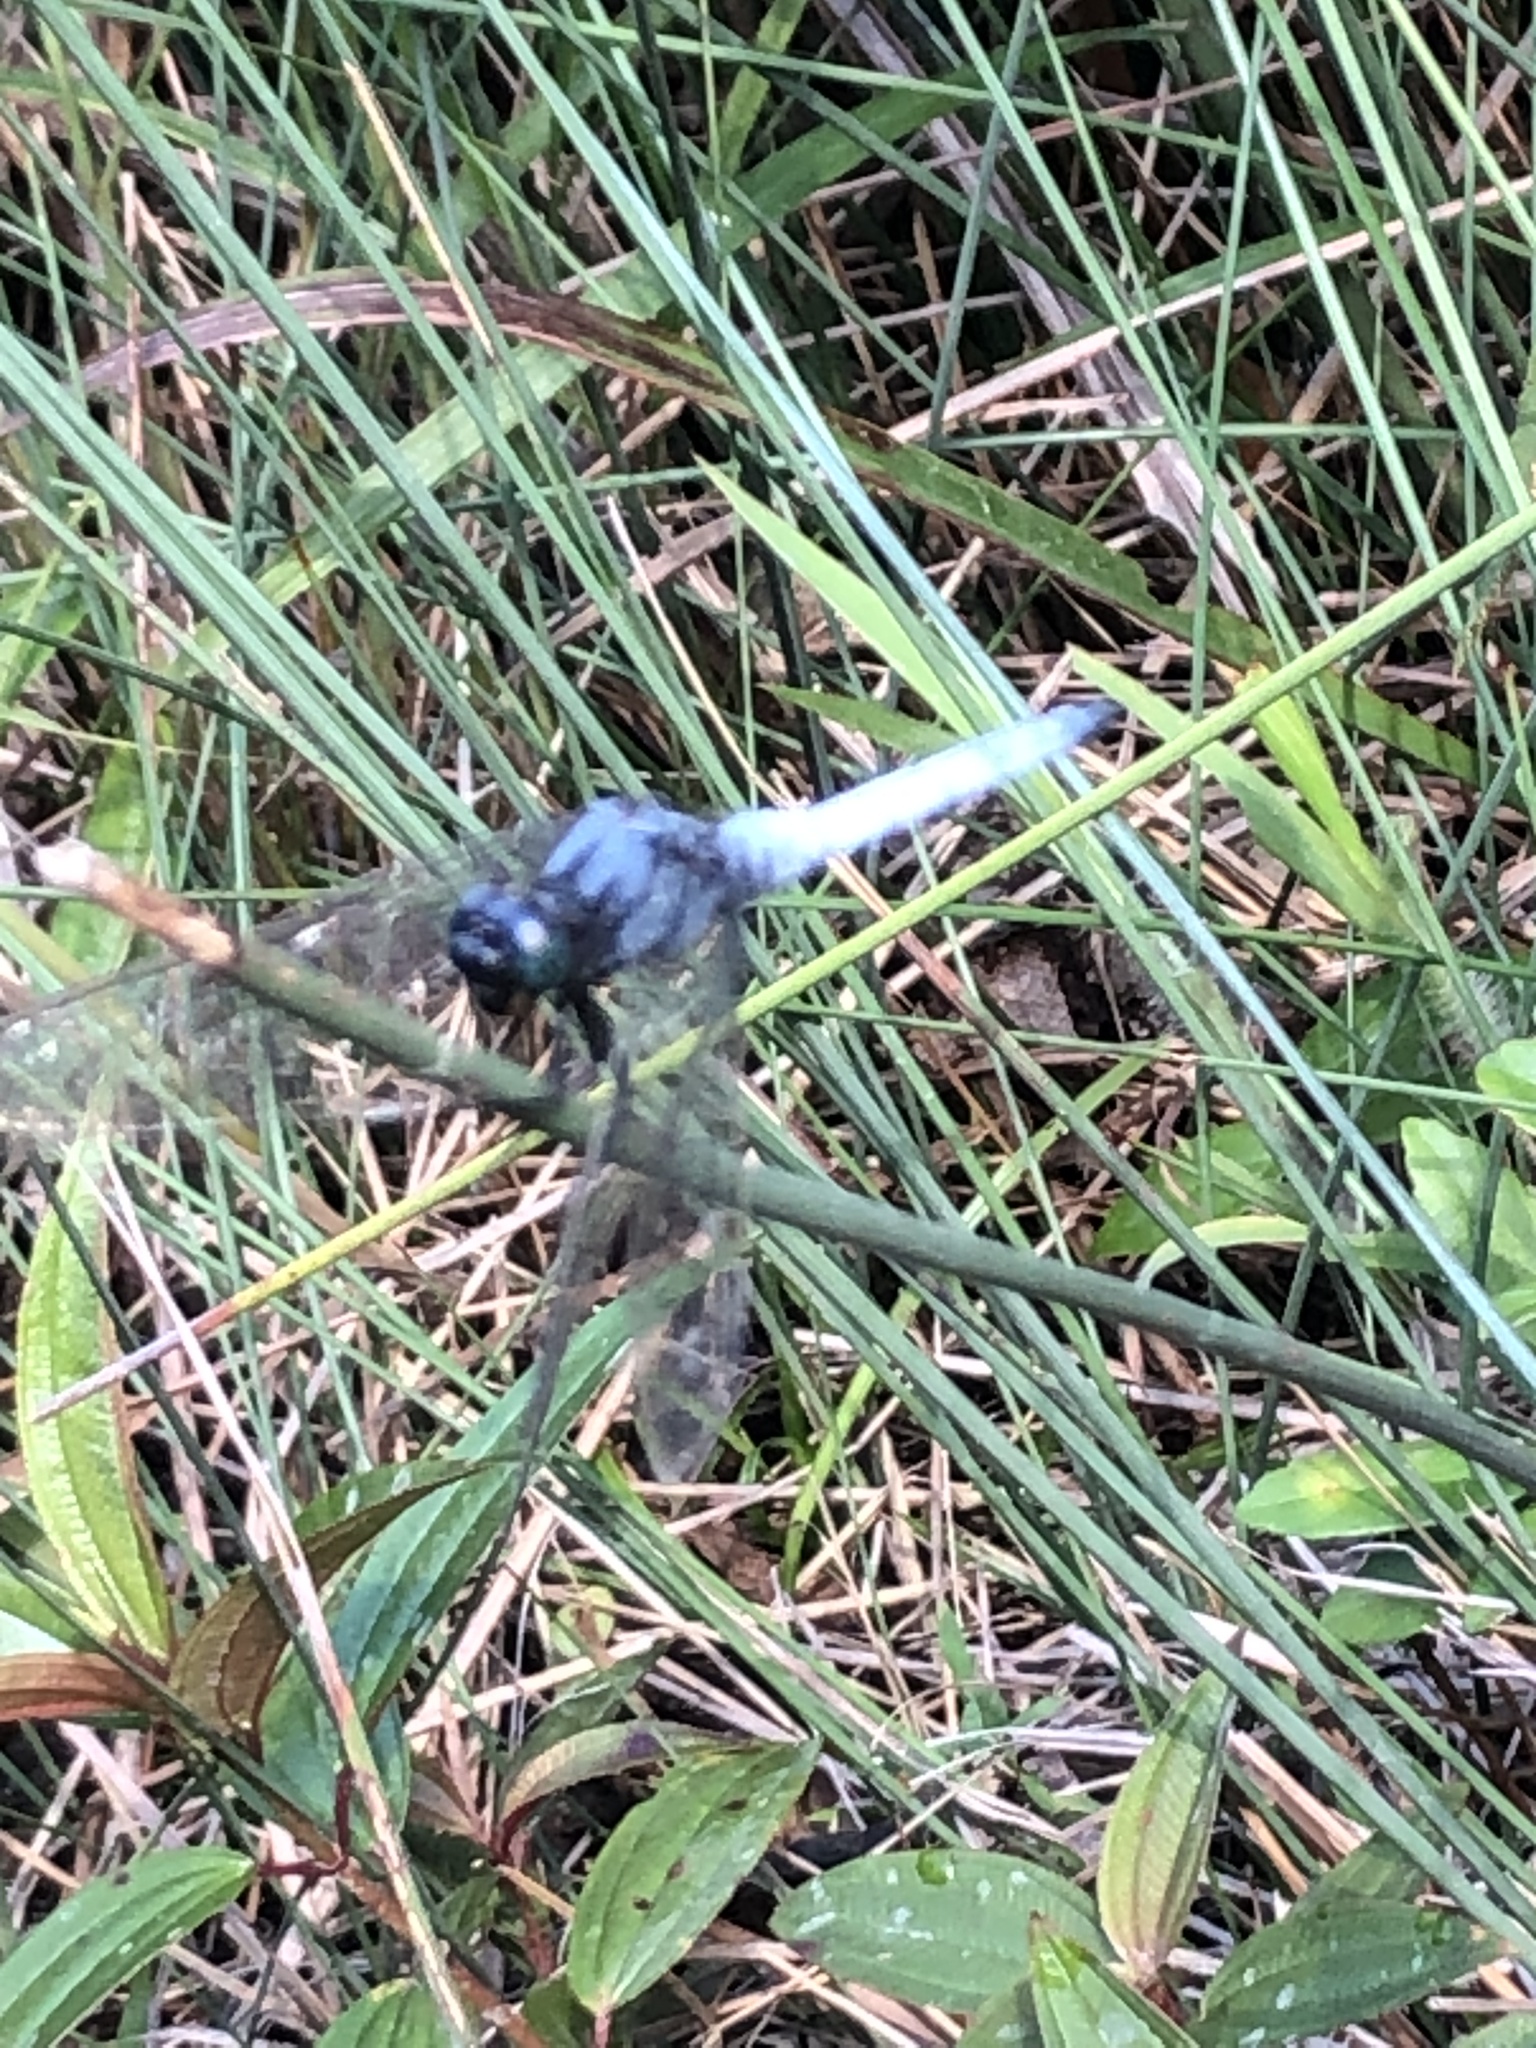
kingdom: Animalia
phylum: Arthropoda
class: Insecta
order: Odonata
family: Libellulidae
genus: Orthetrum
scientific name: Orthetrum glaucum
